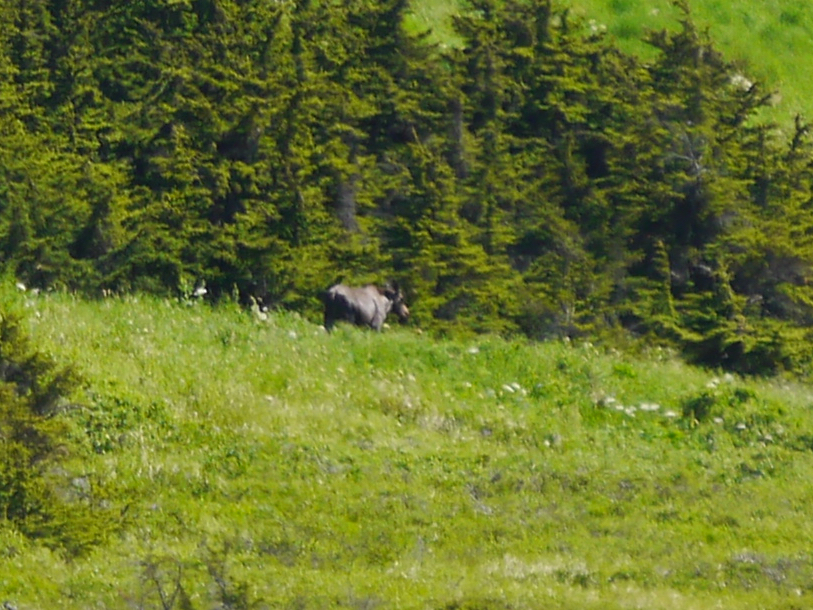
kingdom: Animalia
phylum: Chordata
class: Mammalia
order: Artiodactyla
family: Cervidae
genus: Alces
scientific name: Alces alces
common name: Moose
